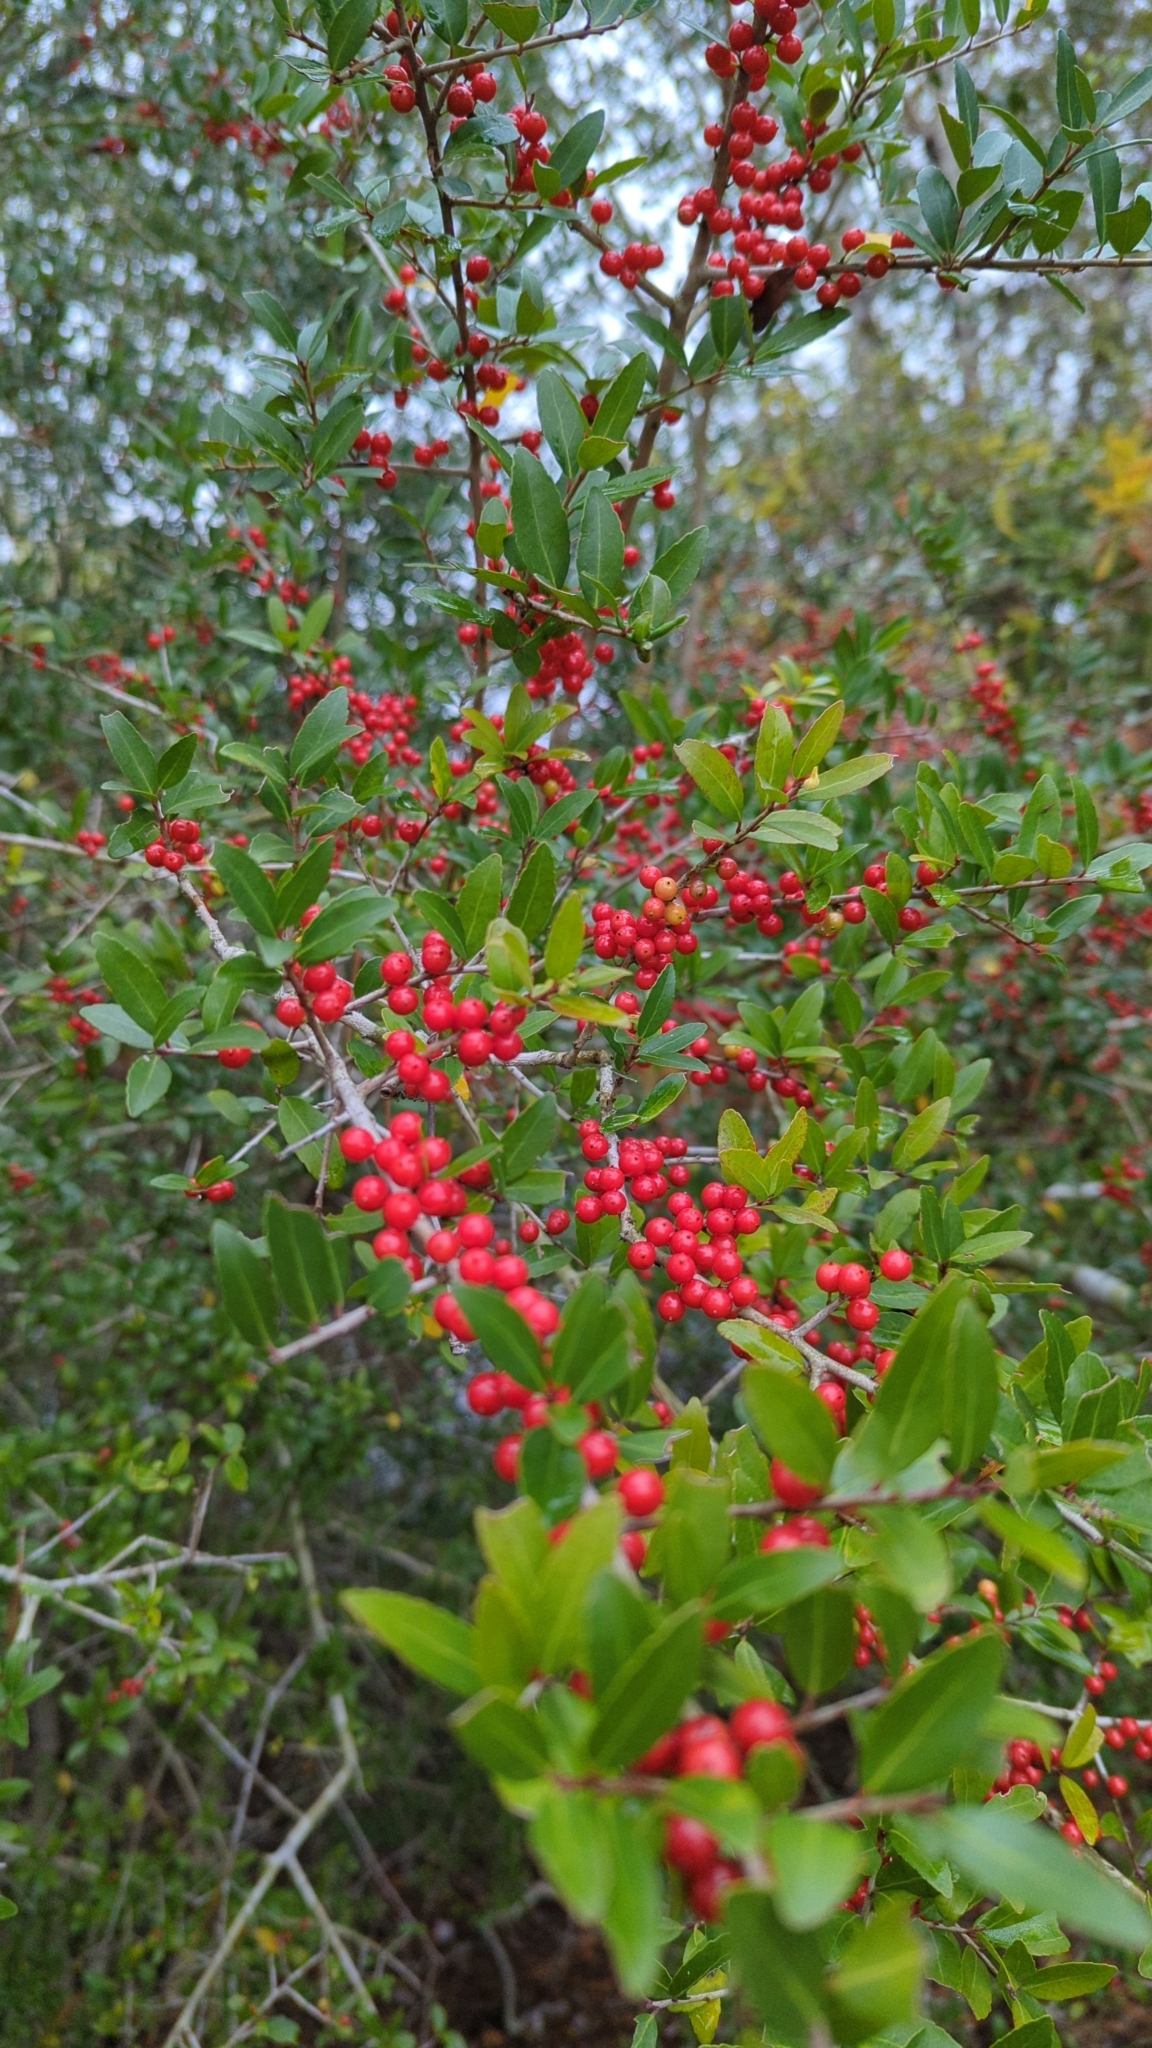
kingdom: Plantae
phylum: Tracheophyta
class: Magnoliopsida
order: Aquifoliales
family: Aquifoliaceae
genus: Ilex
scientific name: Ilex vomitoria
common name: Yaupon holly
